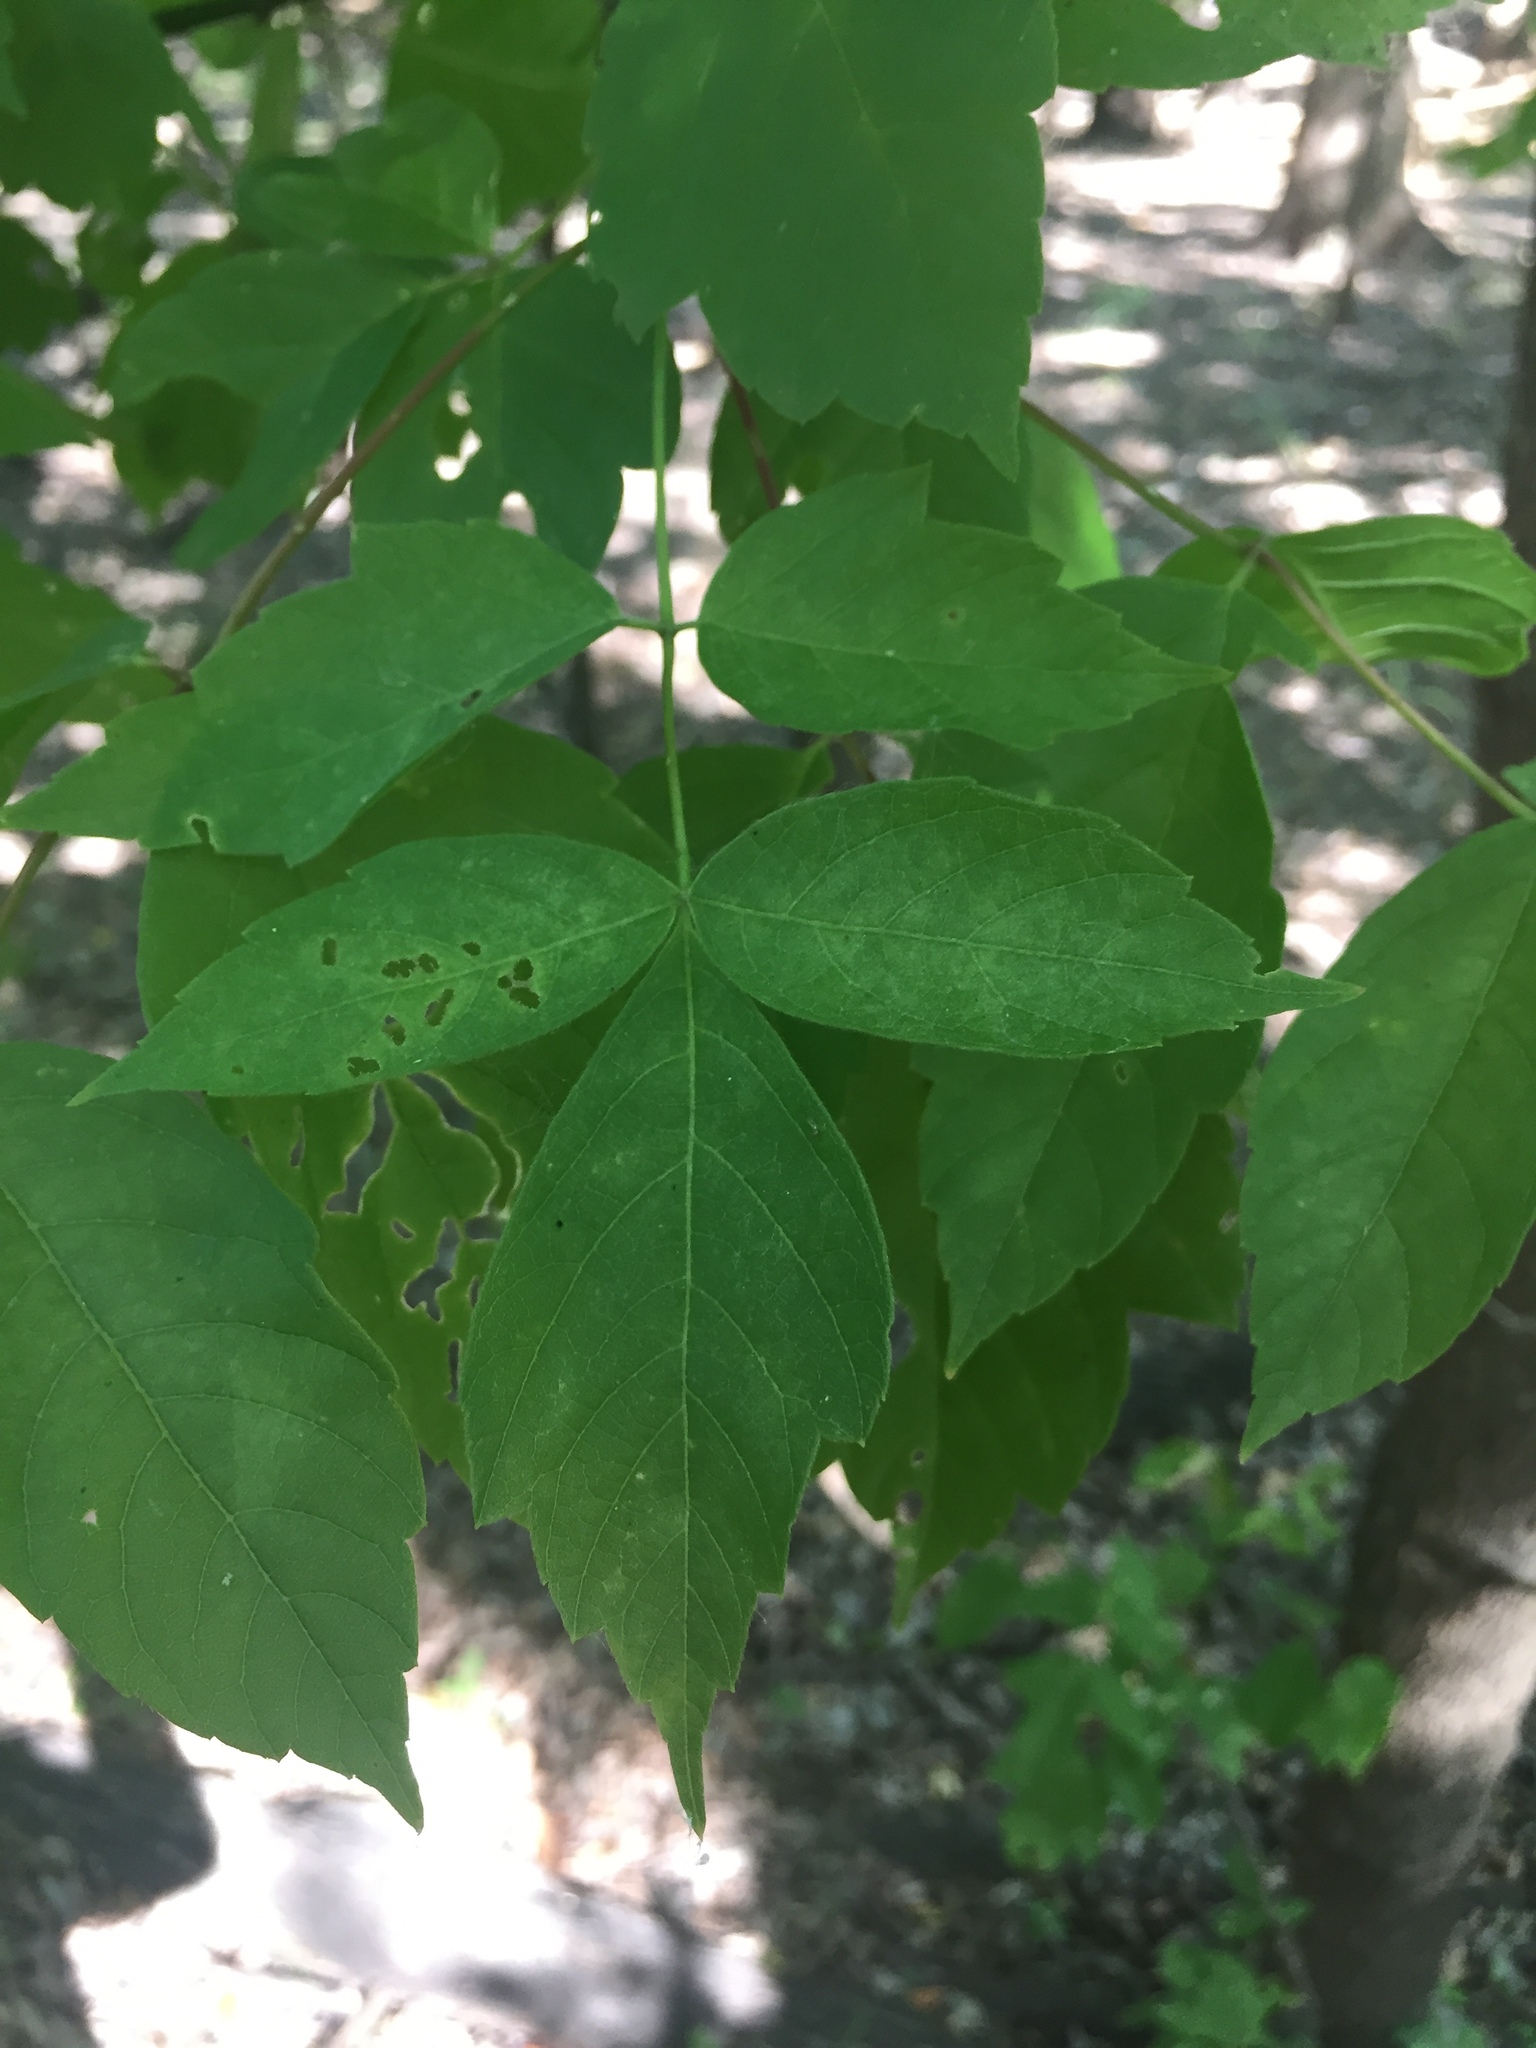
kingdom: Plantae
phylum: Tracheophyta
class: Magnoliopsida
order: Sapindales
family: Sapindaceae
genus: Acer
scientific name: Acer negundo
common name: Ashleaf maple
